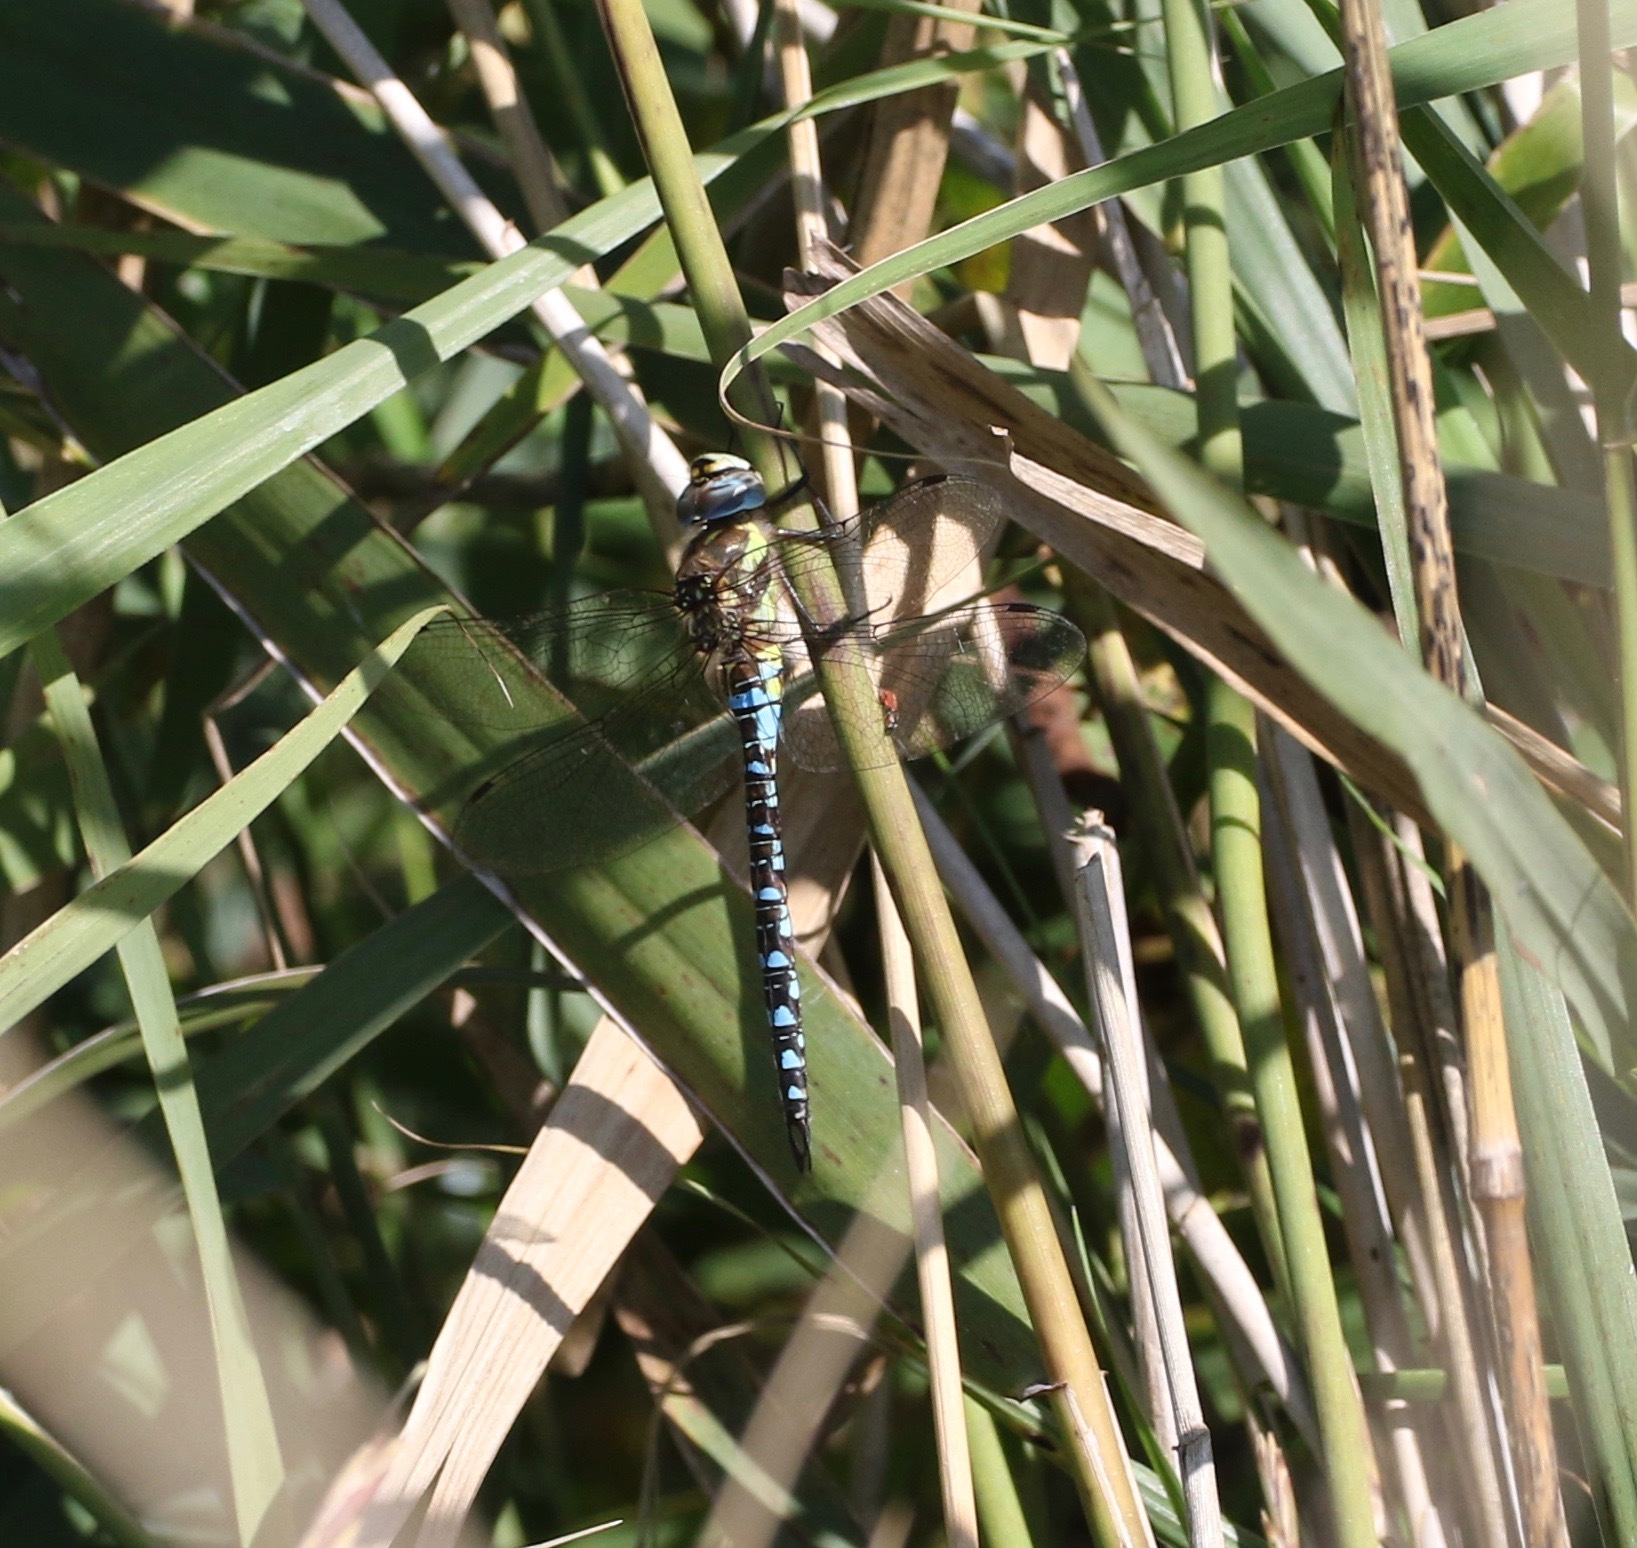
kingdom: Animalia
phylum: Arthropoda
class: Insecta
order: Odonata
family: Aeshnidae
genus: Aeshna
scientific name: Aeshna mixta
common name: Migrant hawker
